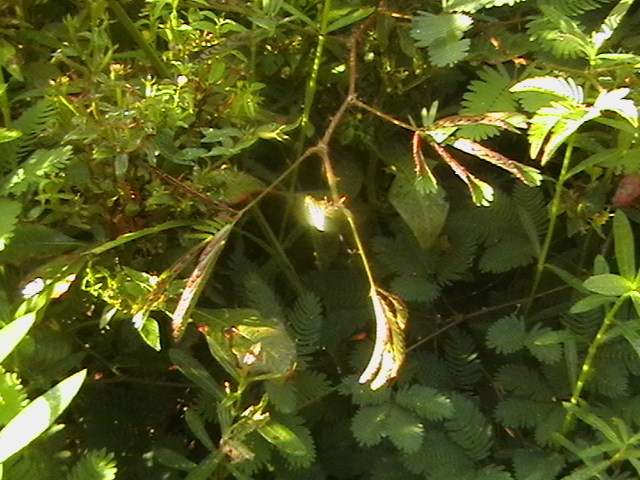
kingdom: Plantae
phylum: Tracheophyta
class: Magnoliopsida
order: Fabales
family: Fabaceae
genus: Mimosa
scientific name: Mimosa pudica
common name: Sensitive plant
